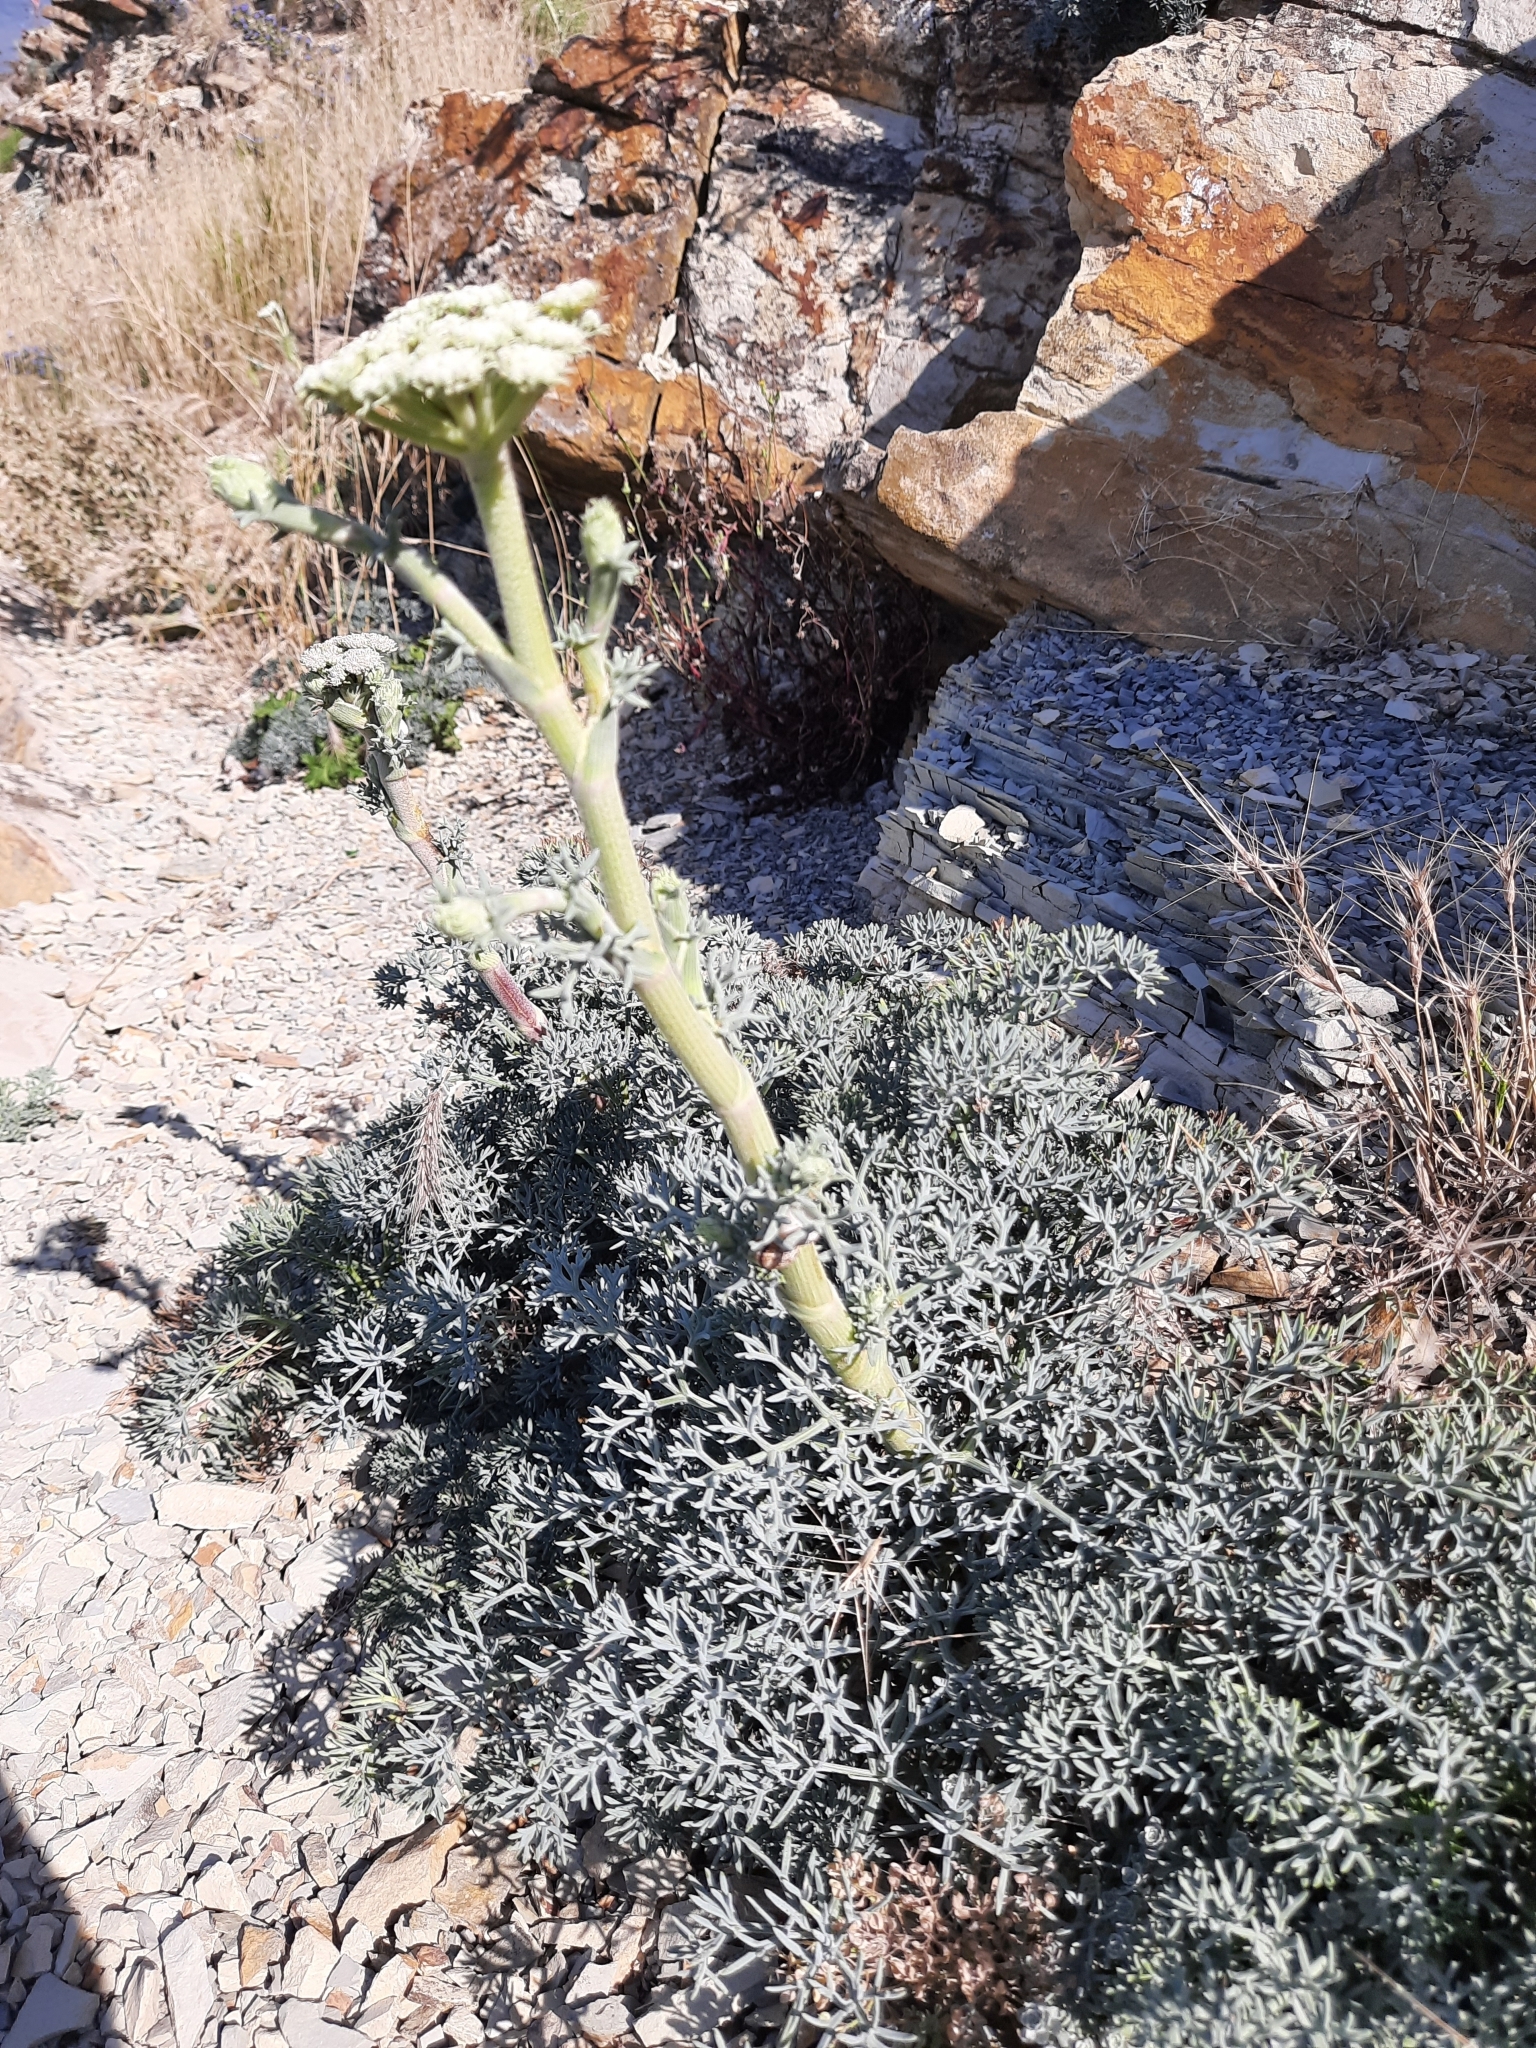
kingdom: Plantae
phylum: Tracheophyta
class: Magnoliopsida
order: Apiales
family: Apiaceae
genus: Seseli
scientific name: Seseli ponticum
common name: Pontic seseli
